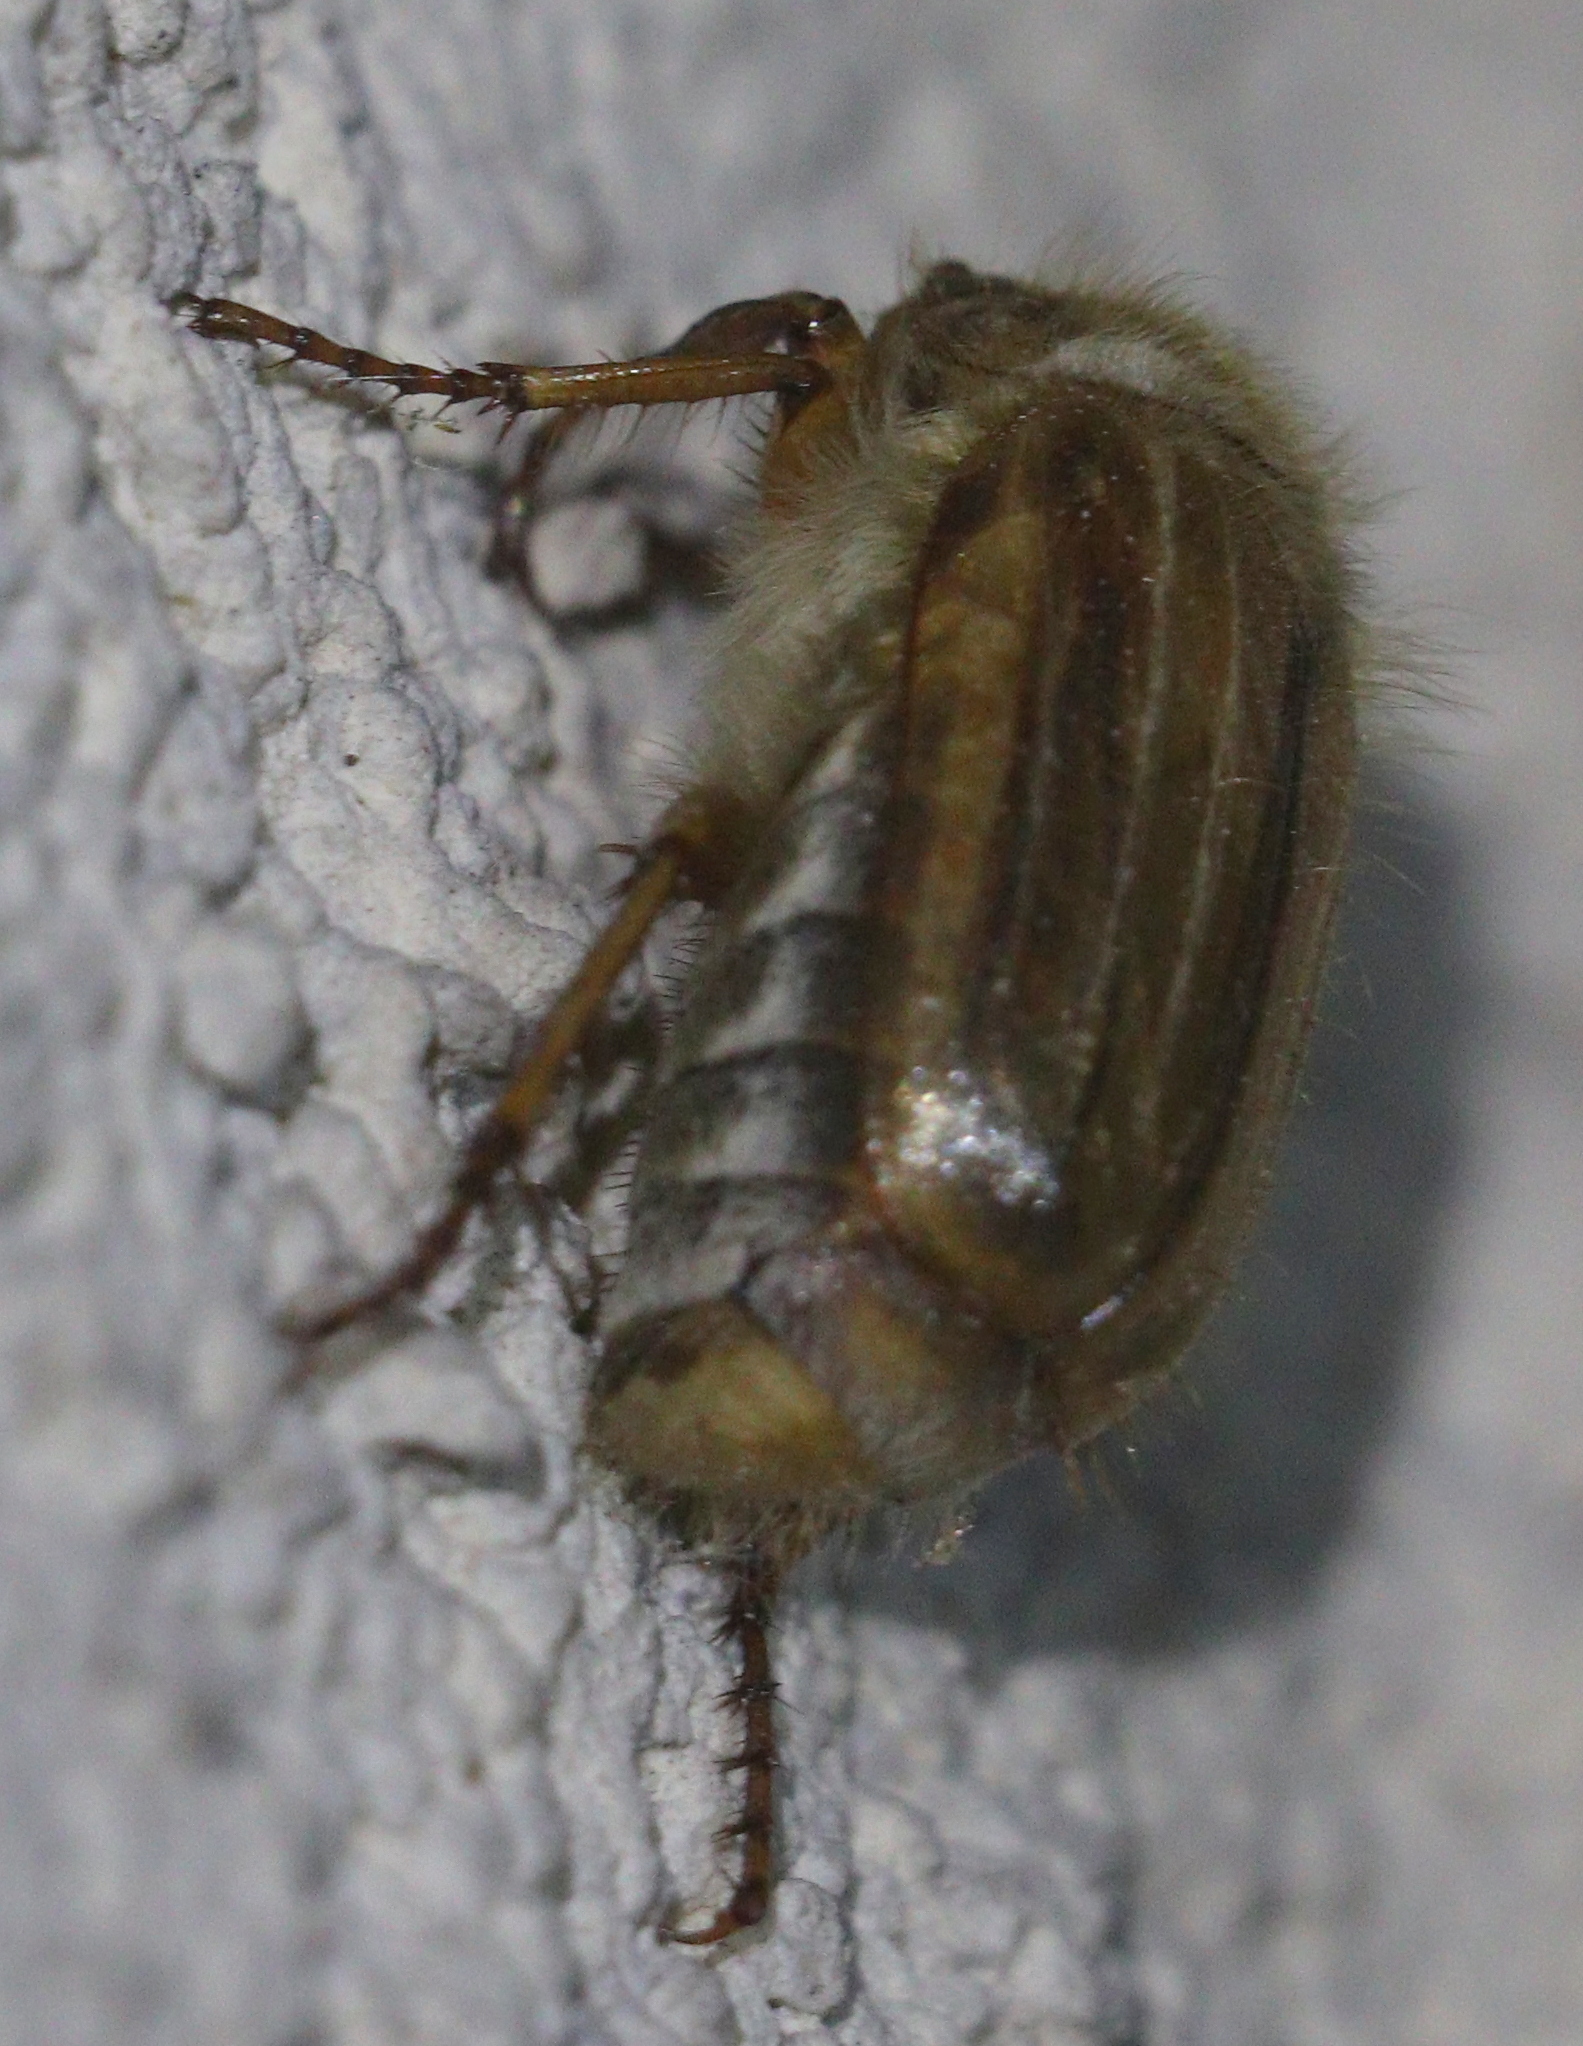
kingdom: Animalia
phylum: Arthropoda
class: Insecta
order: Coleoptera
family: Scarabaeidae
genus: Amphimallon
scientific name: Amphimallon solstitiale
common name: Summer chafer
